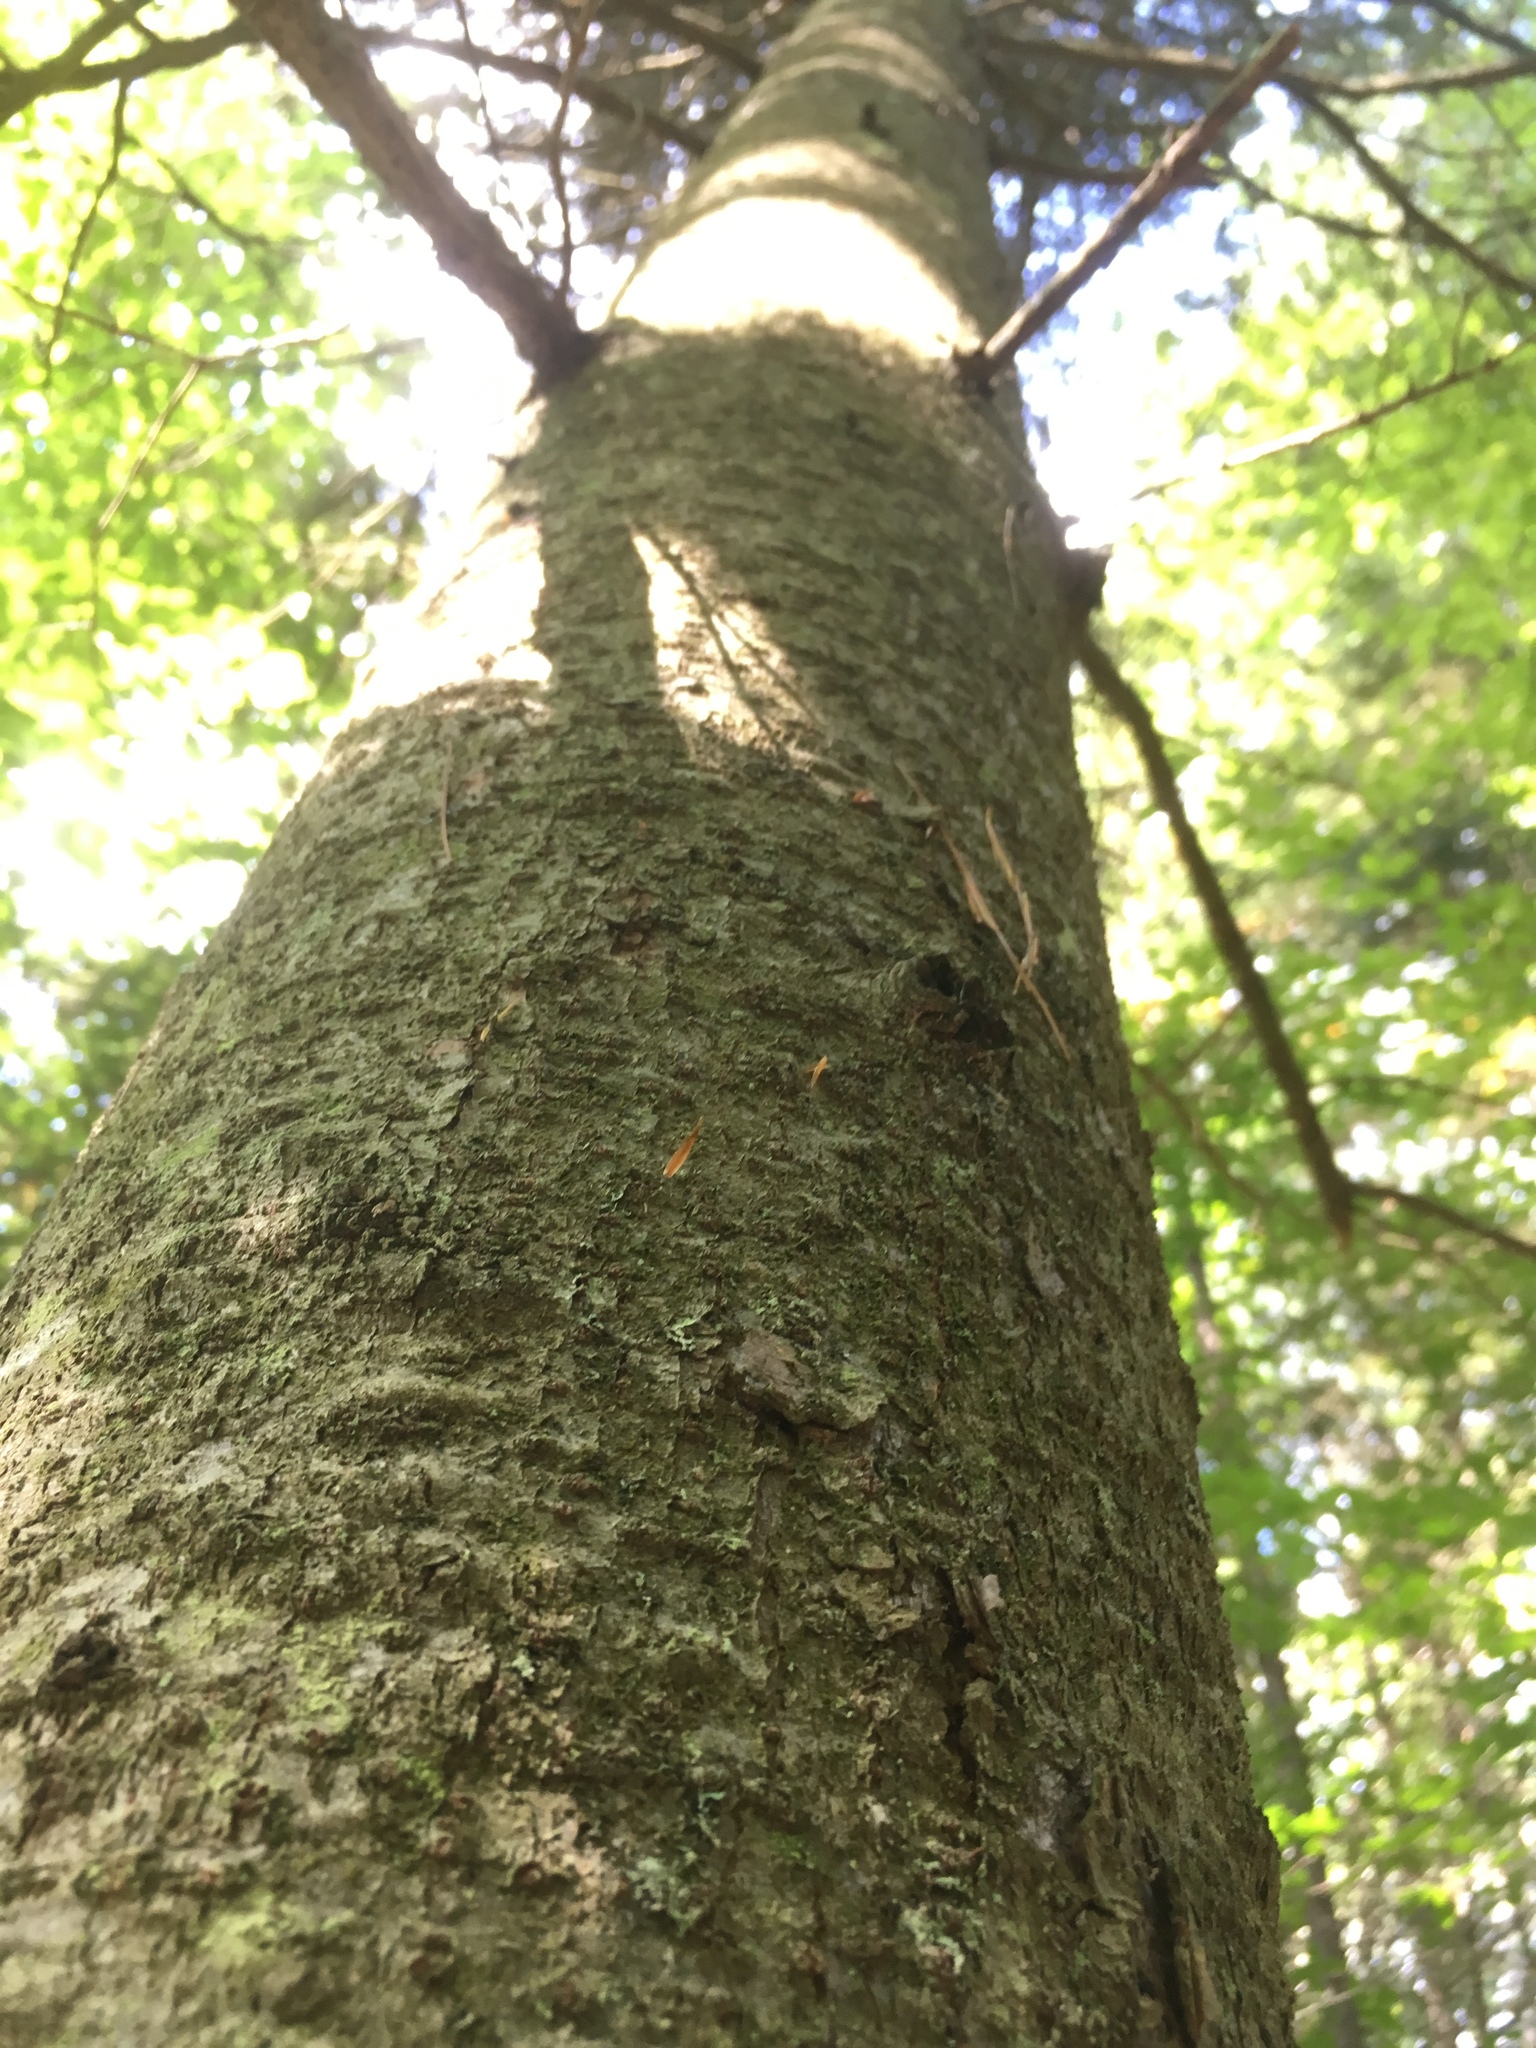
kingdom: Plantae
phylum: Tracheophyta
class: Pinopsida
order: Pinales
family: Pinaceae
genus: Abies
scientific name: Abies balsamea
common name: Balsam fir
